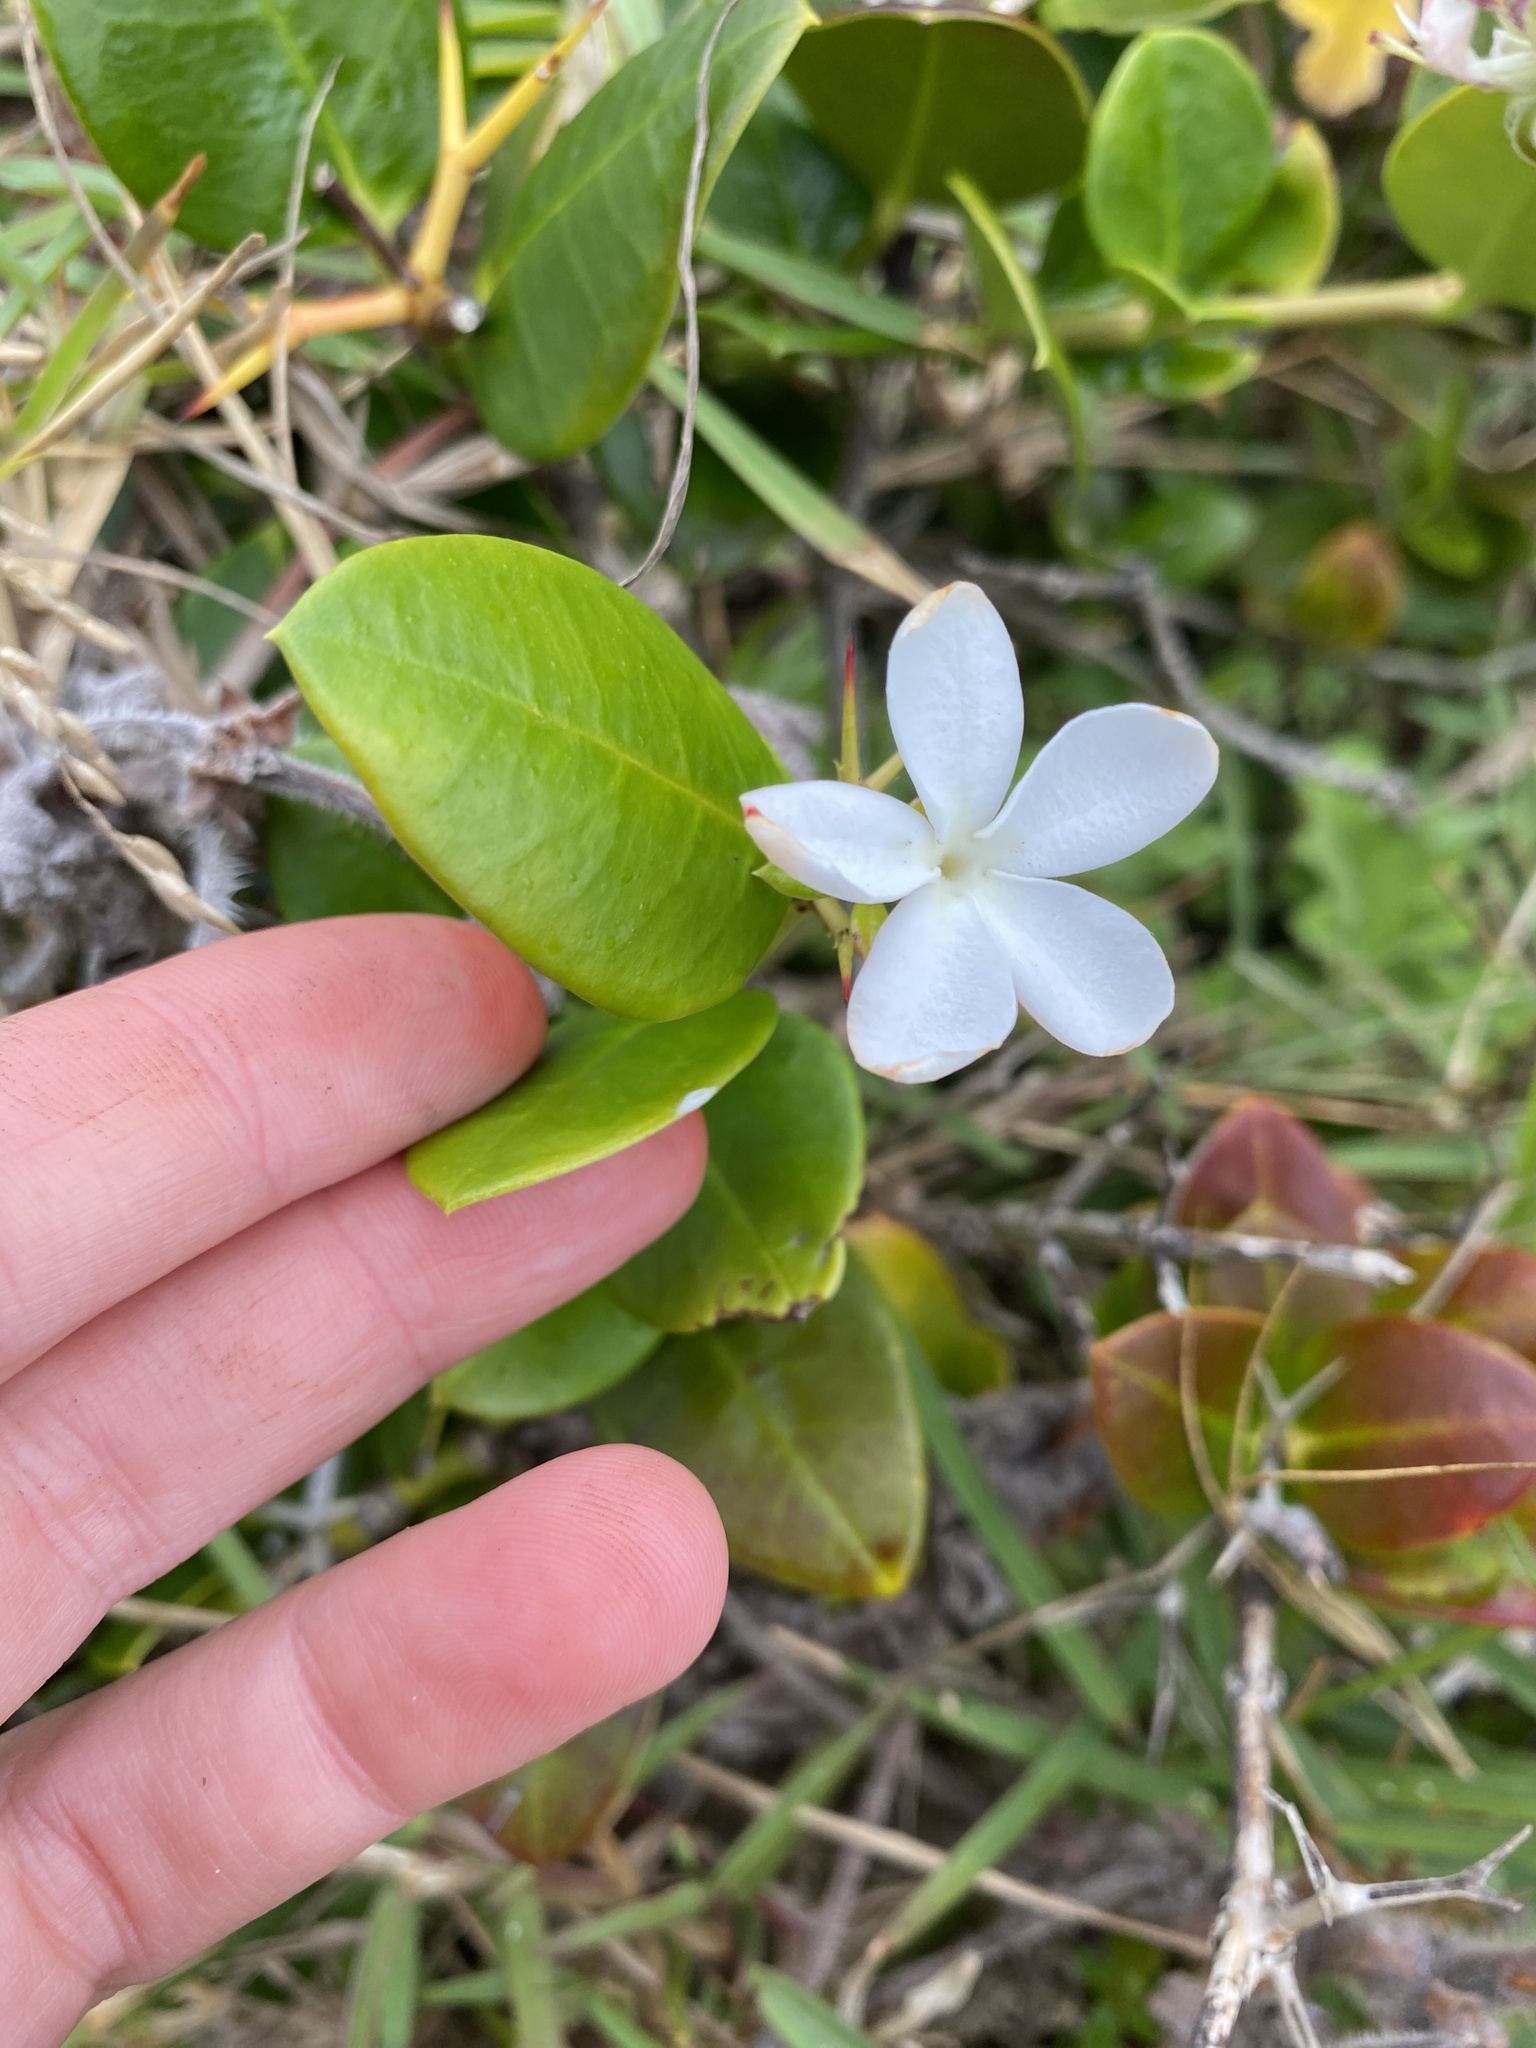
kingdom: Plantae
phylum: Tracheophyta
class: Magnoliopsida
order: Gentianales
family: Apocynaceae
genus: Carissa
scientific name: Carissa macrocarpa
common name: Natal plum
